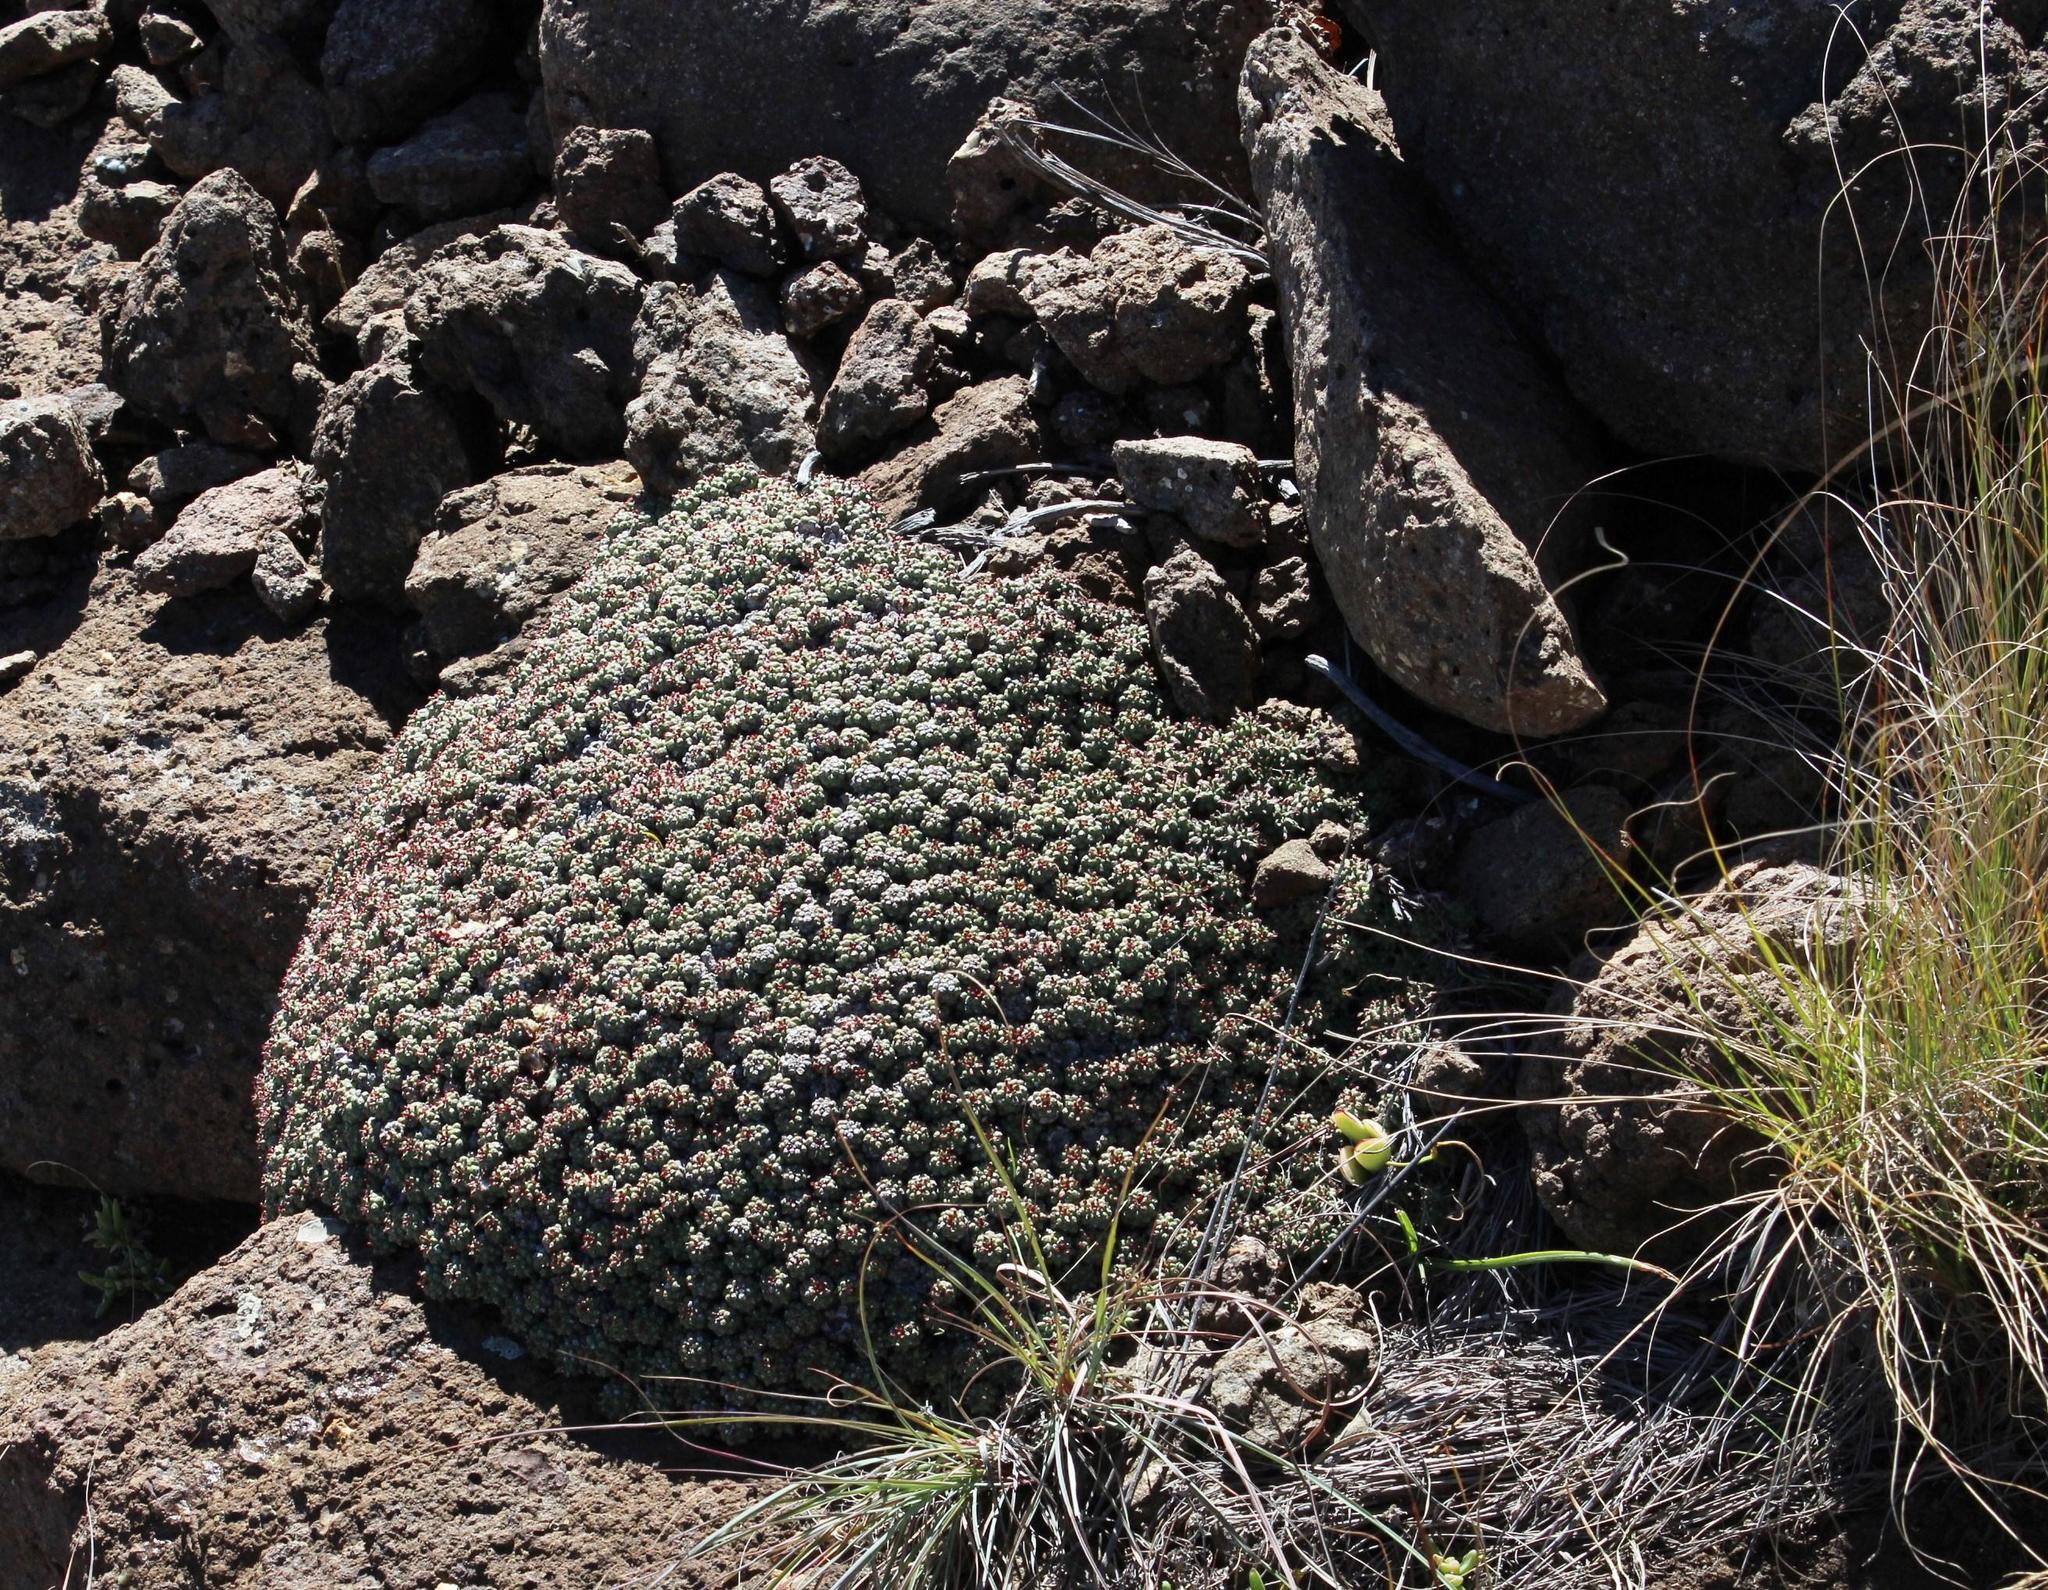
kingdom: Plantae
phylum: Tracheophyta
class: Magnoliopsida
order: Malpighiales
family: Euphorbiaceae
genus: Euphorbia
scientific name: Euphorbia clavarioides
